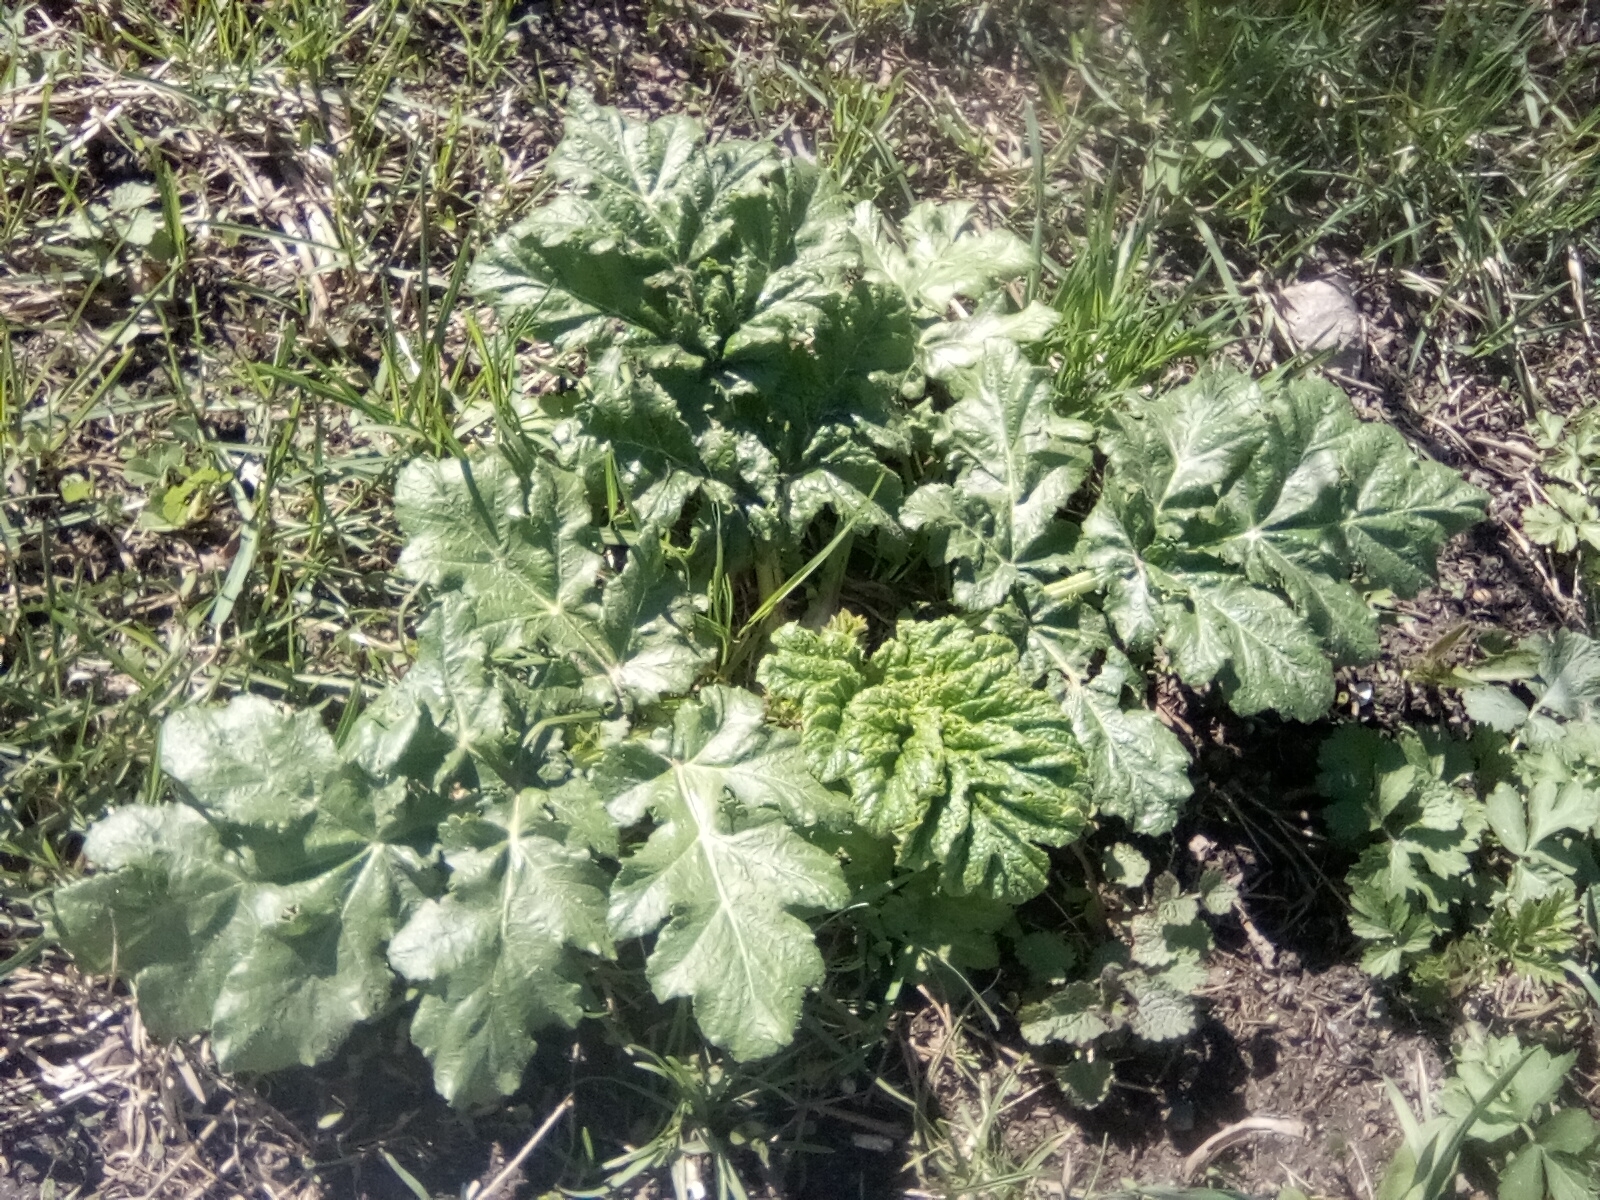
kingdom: Plantae
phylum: Tracheophyta
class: Magnoliopsida
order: Apiales
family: Apiaceae
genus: Heracleum
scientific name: Heracleum sosnowskyi
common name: Sosnowsky's hogweed
